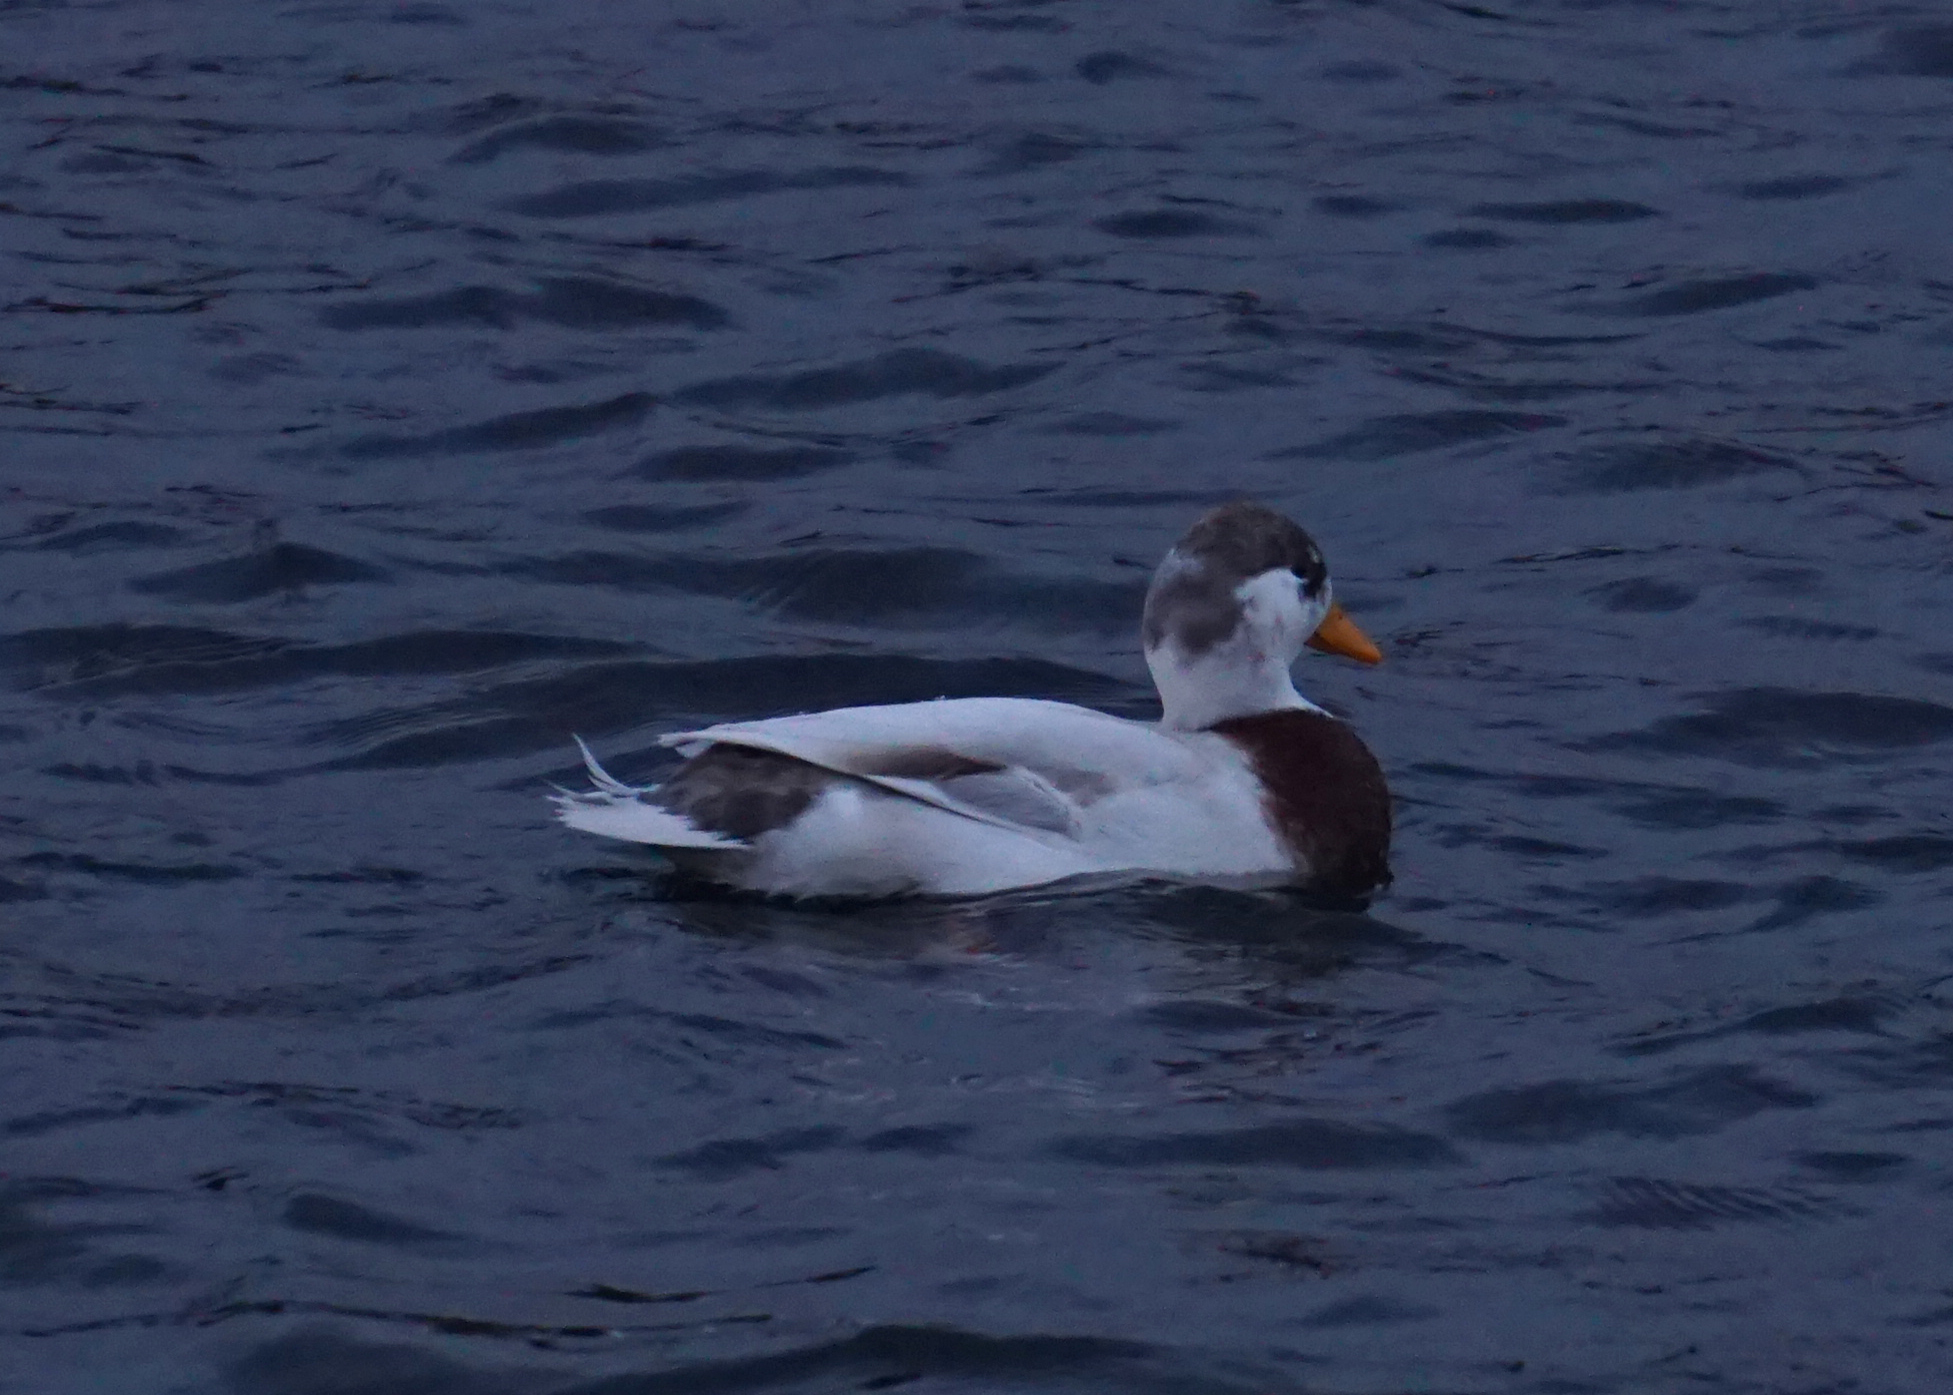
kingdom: Animalia
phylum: Chordata
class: Aves
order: Anseriformes
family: Anatidae
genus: Anas
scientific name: Anas platyrhynchos
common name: Mallard
